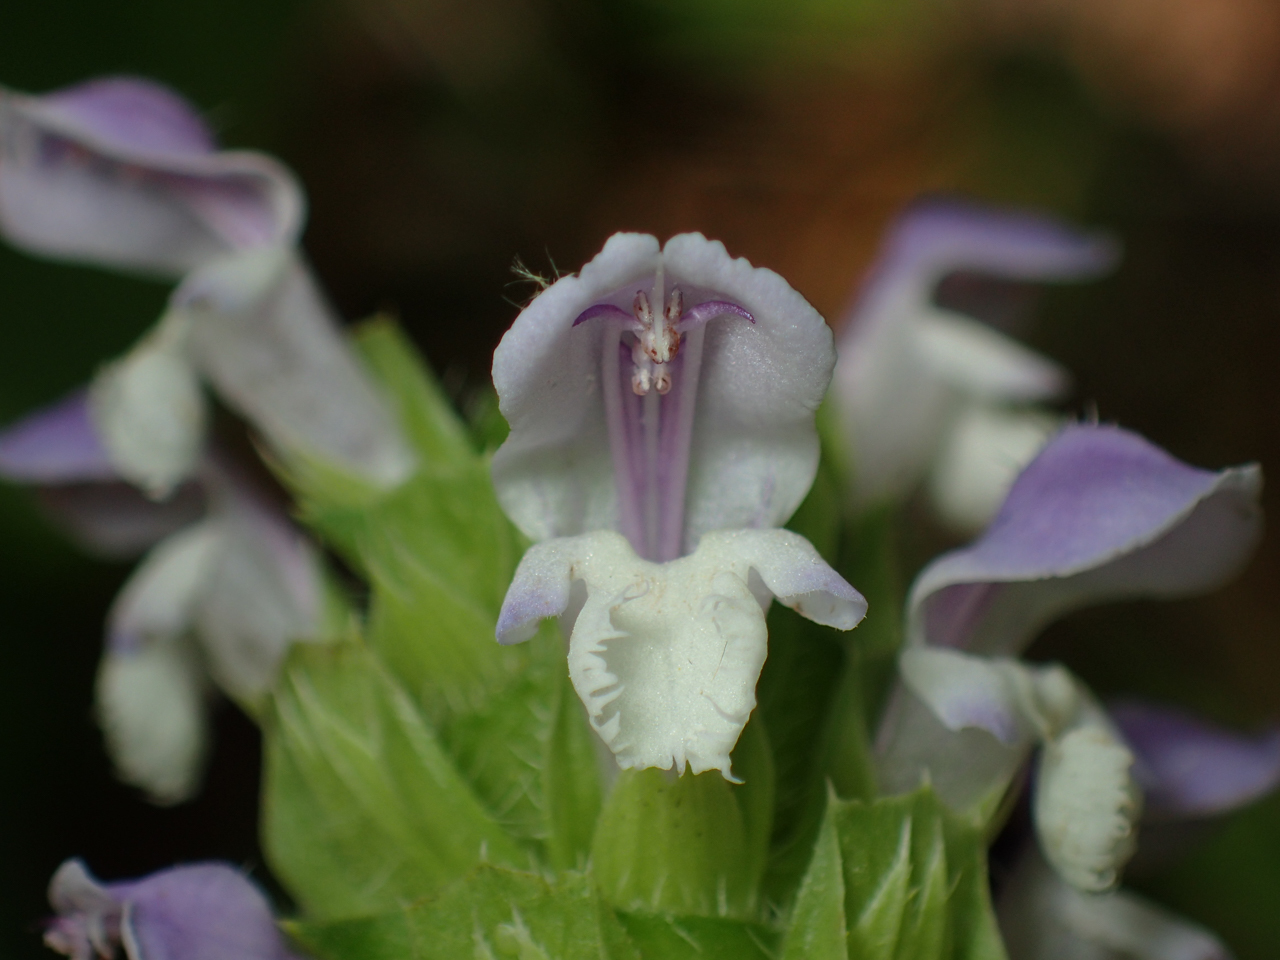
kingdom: Plantae
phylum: Tracheophyta
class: Magnoliopsida
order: Lamiales
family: Lamiaceae
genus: Prunella
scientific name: Prunella vulgaris
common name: Heal-all
